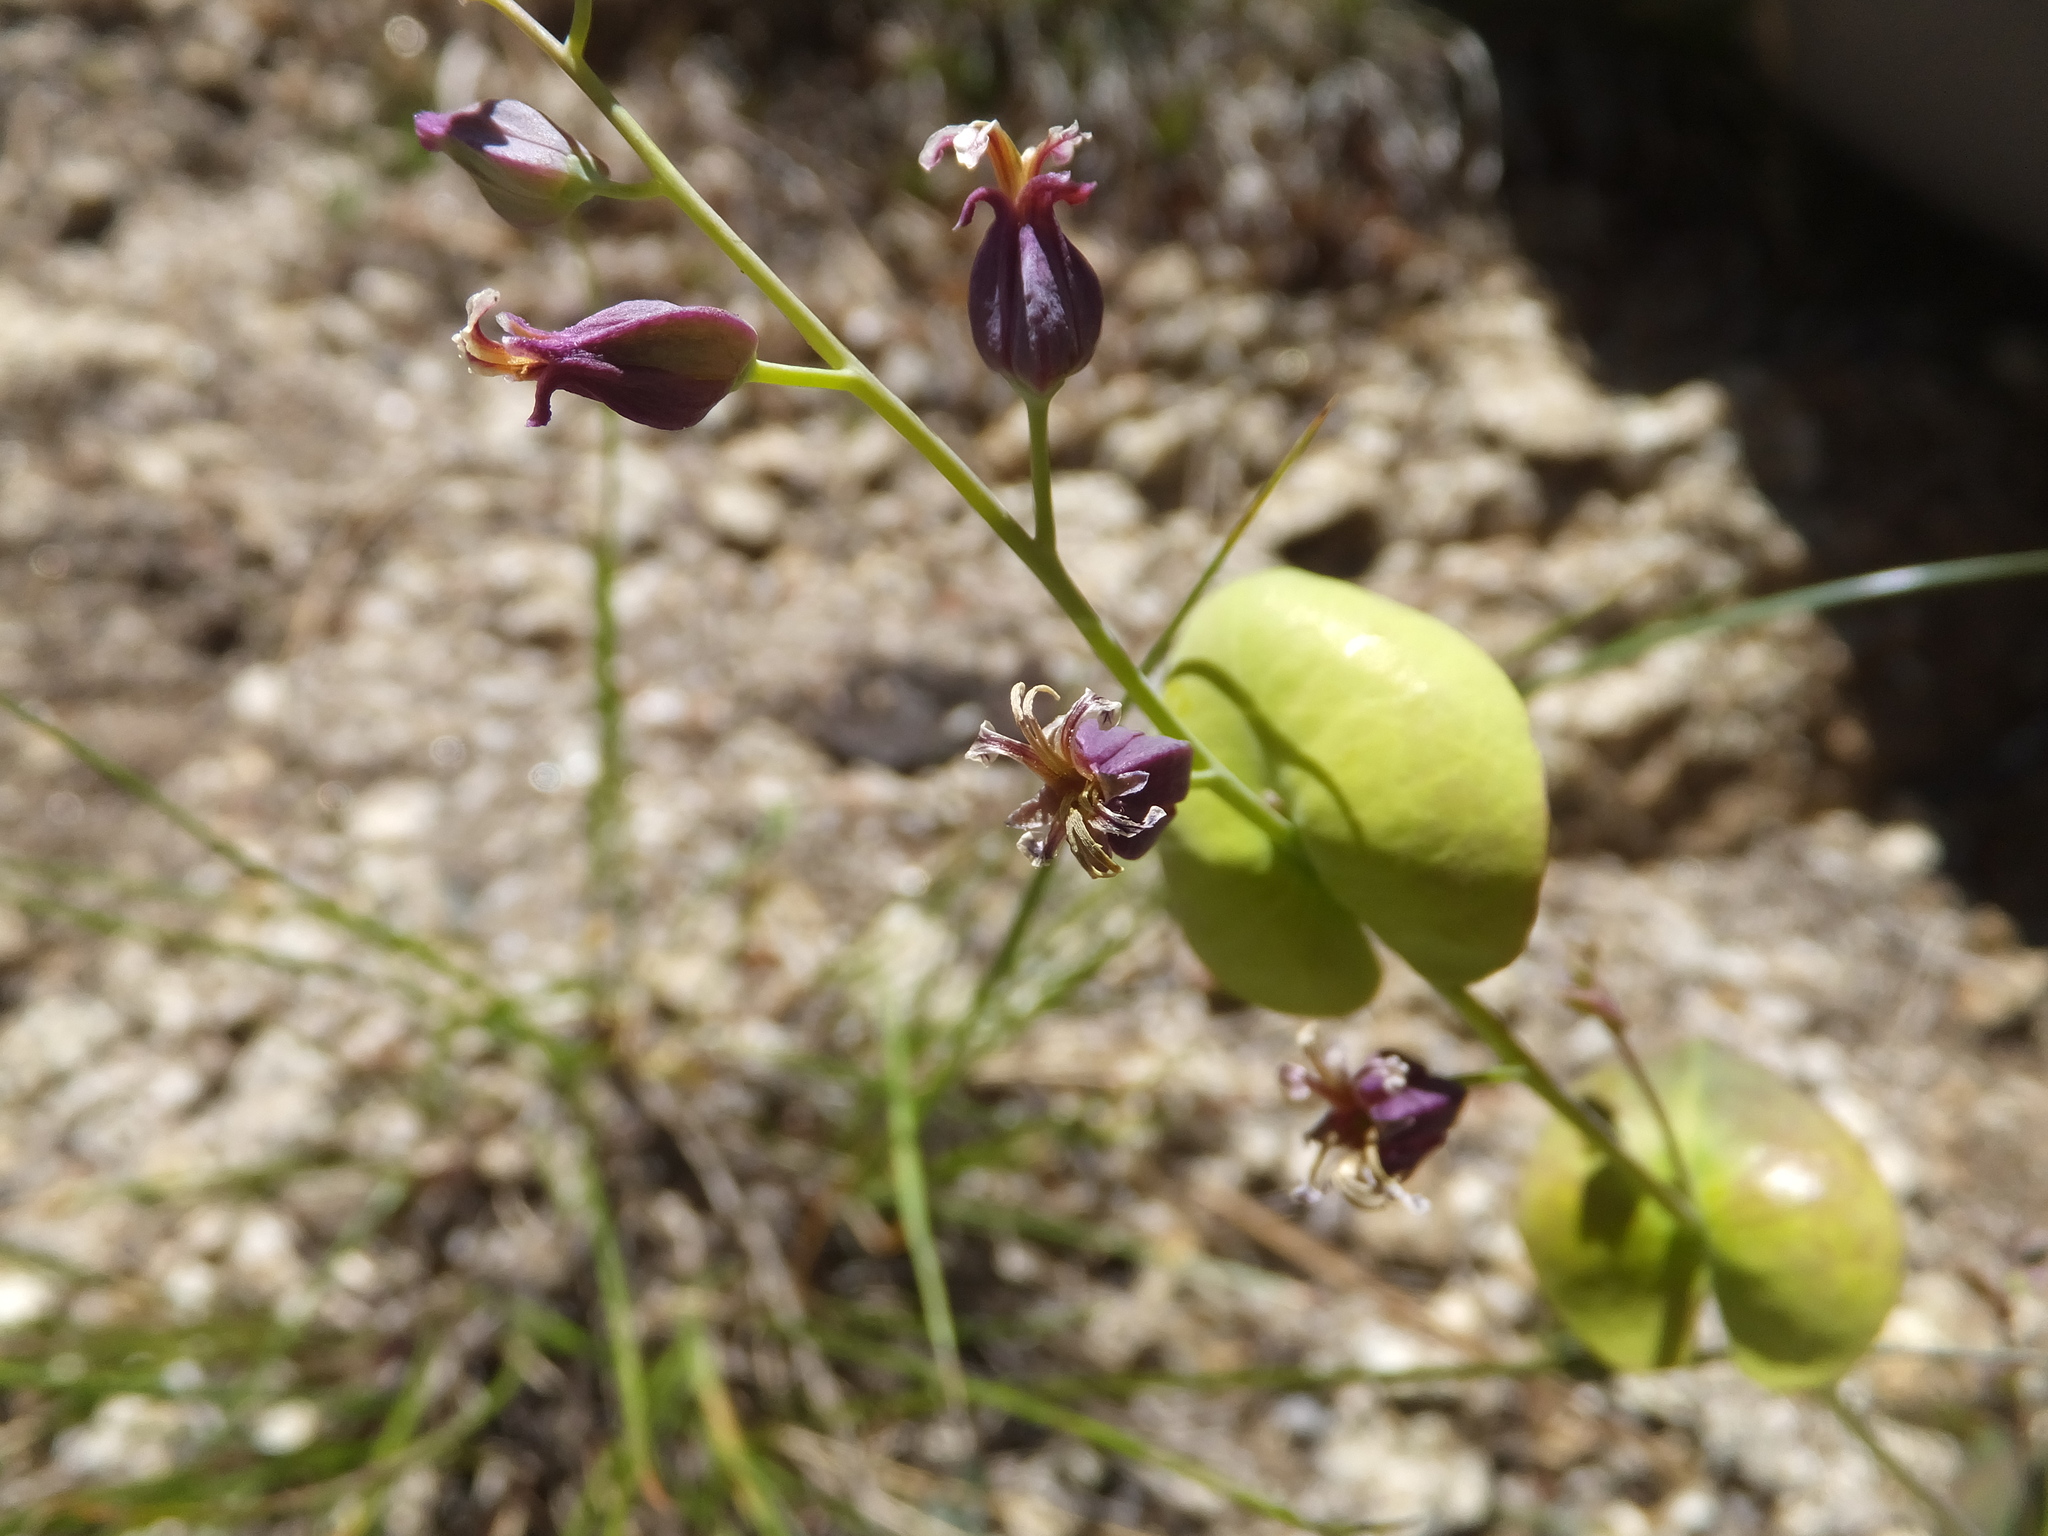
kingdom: Plantae
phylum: Tracheophyta
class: Magnoliopsida
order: Brassicales
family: Brassicaceae
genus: Streptanthus
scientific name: Streptanthus tortuosus
